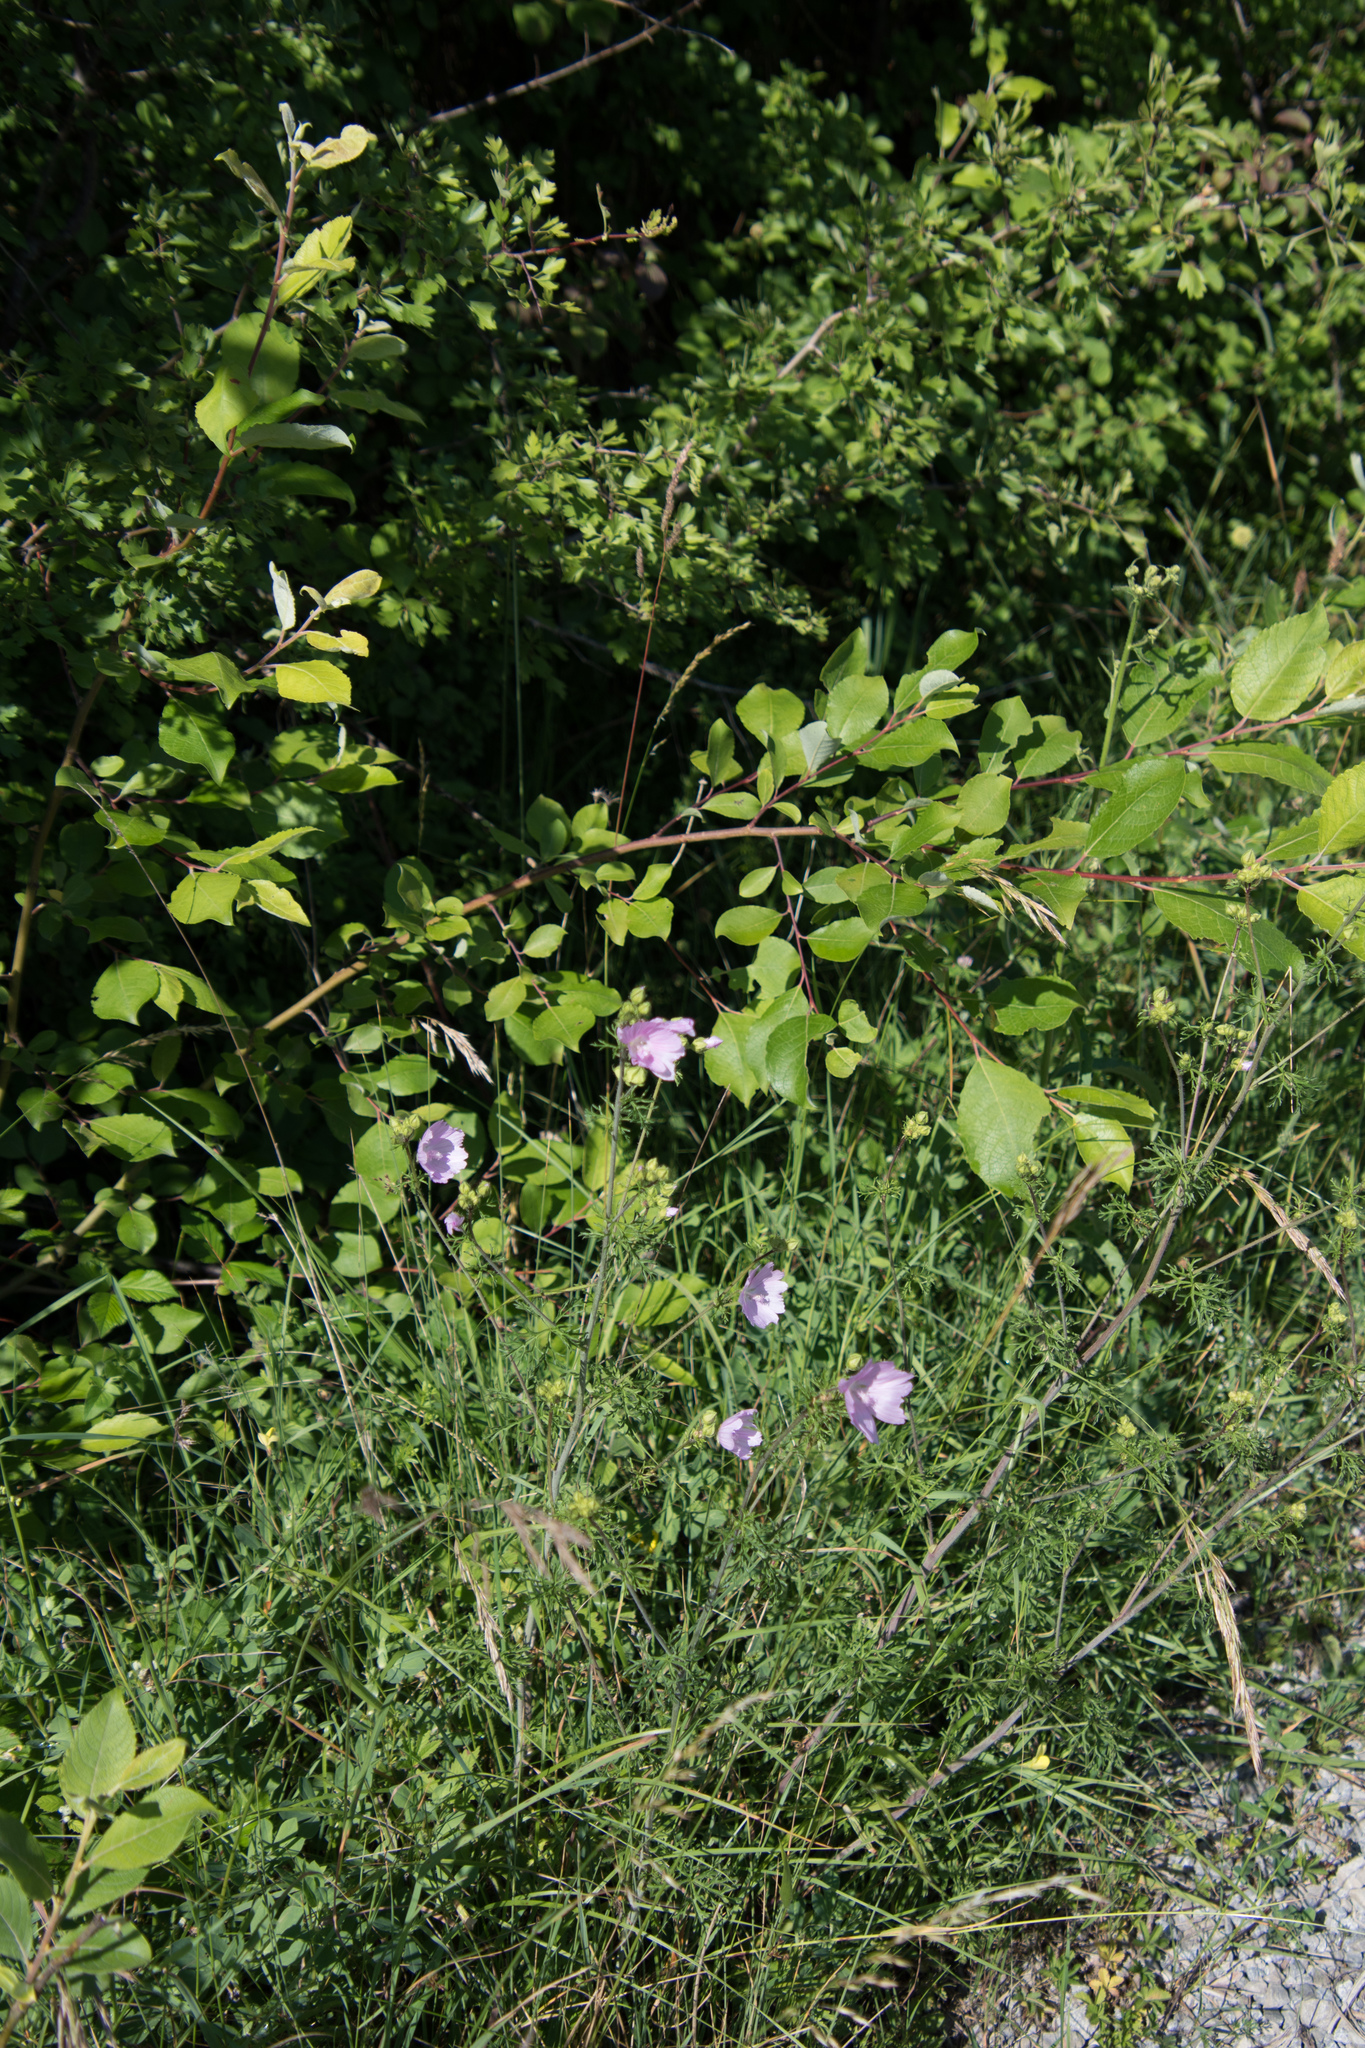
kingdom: Plantae
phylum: Tracheophyta
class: Magnoliopsida
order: Malvales
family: Malvaceae
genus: Malva
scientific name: Malva moschata
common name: Musk mallow
